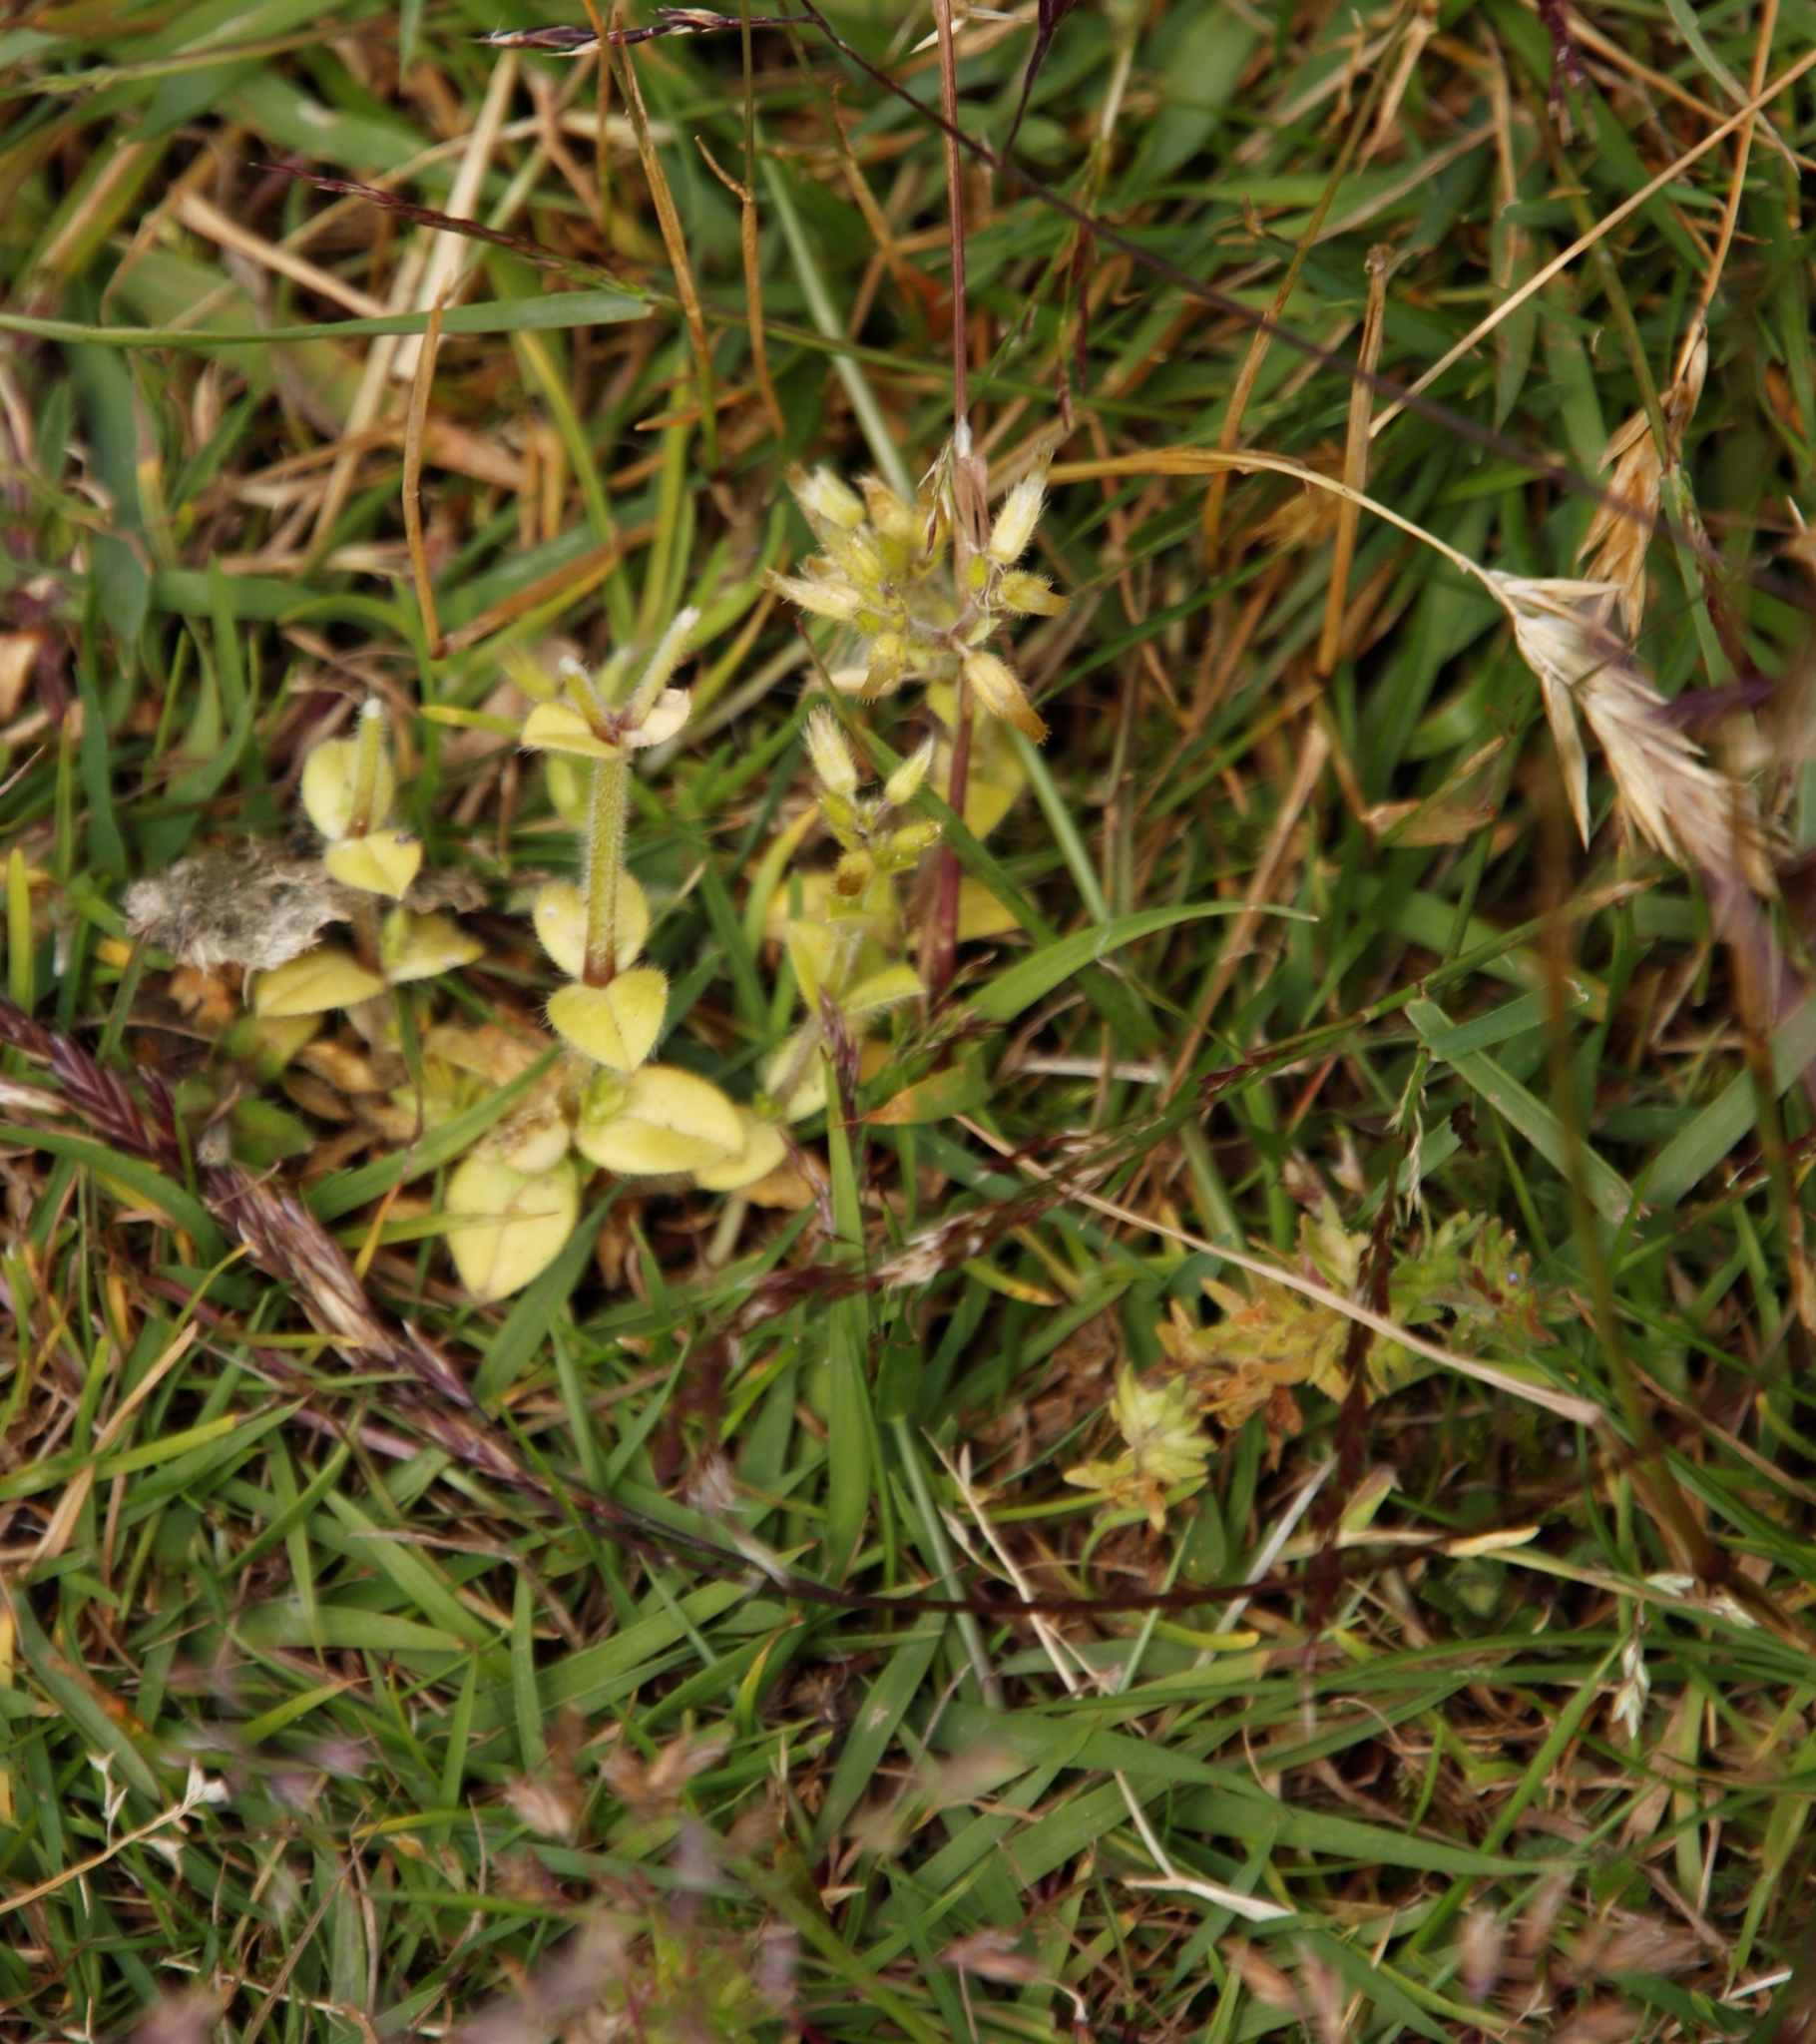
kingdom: Plantae
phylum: Tracheophyta
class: Magnoliopsida
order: Caryophyllales
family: Caryophyllaceae
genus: Cerastium
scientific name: Cerastium glomeratum
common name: Sticky chickweed
